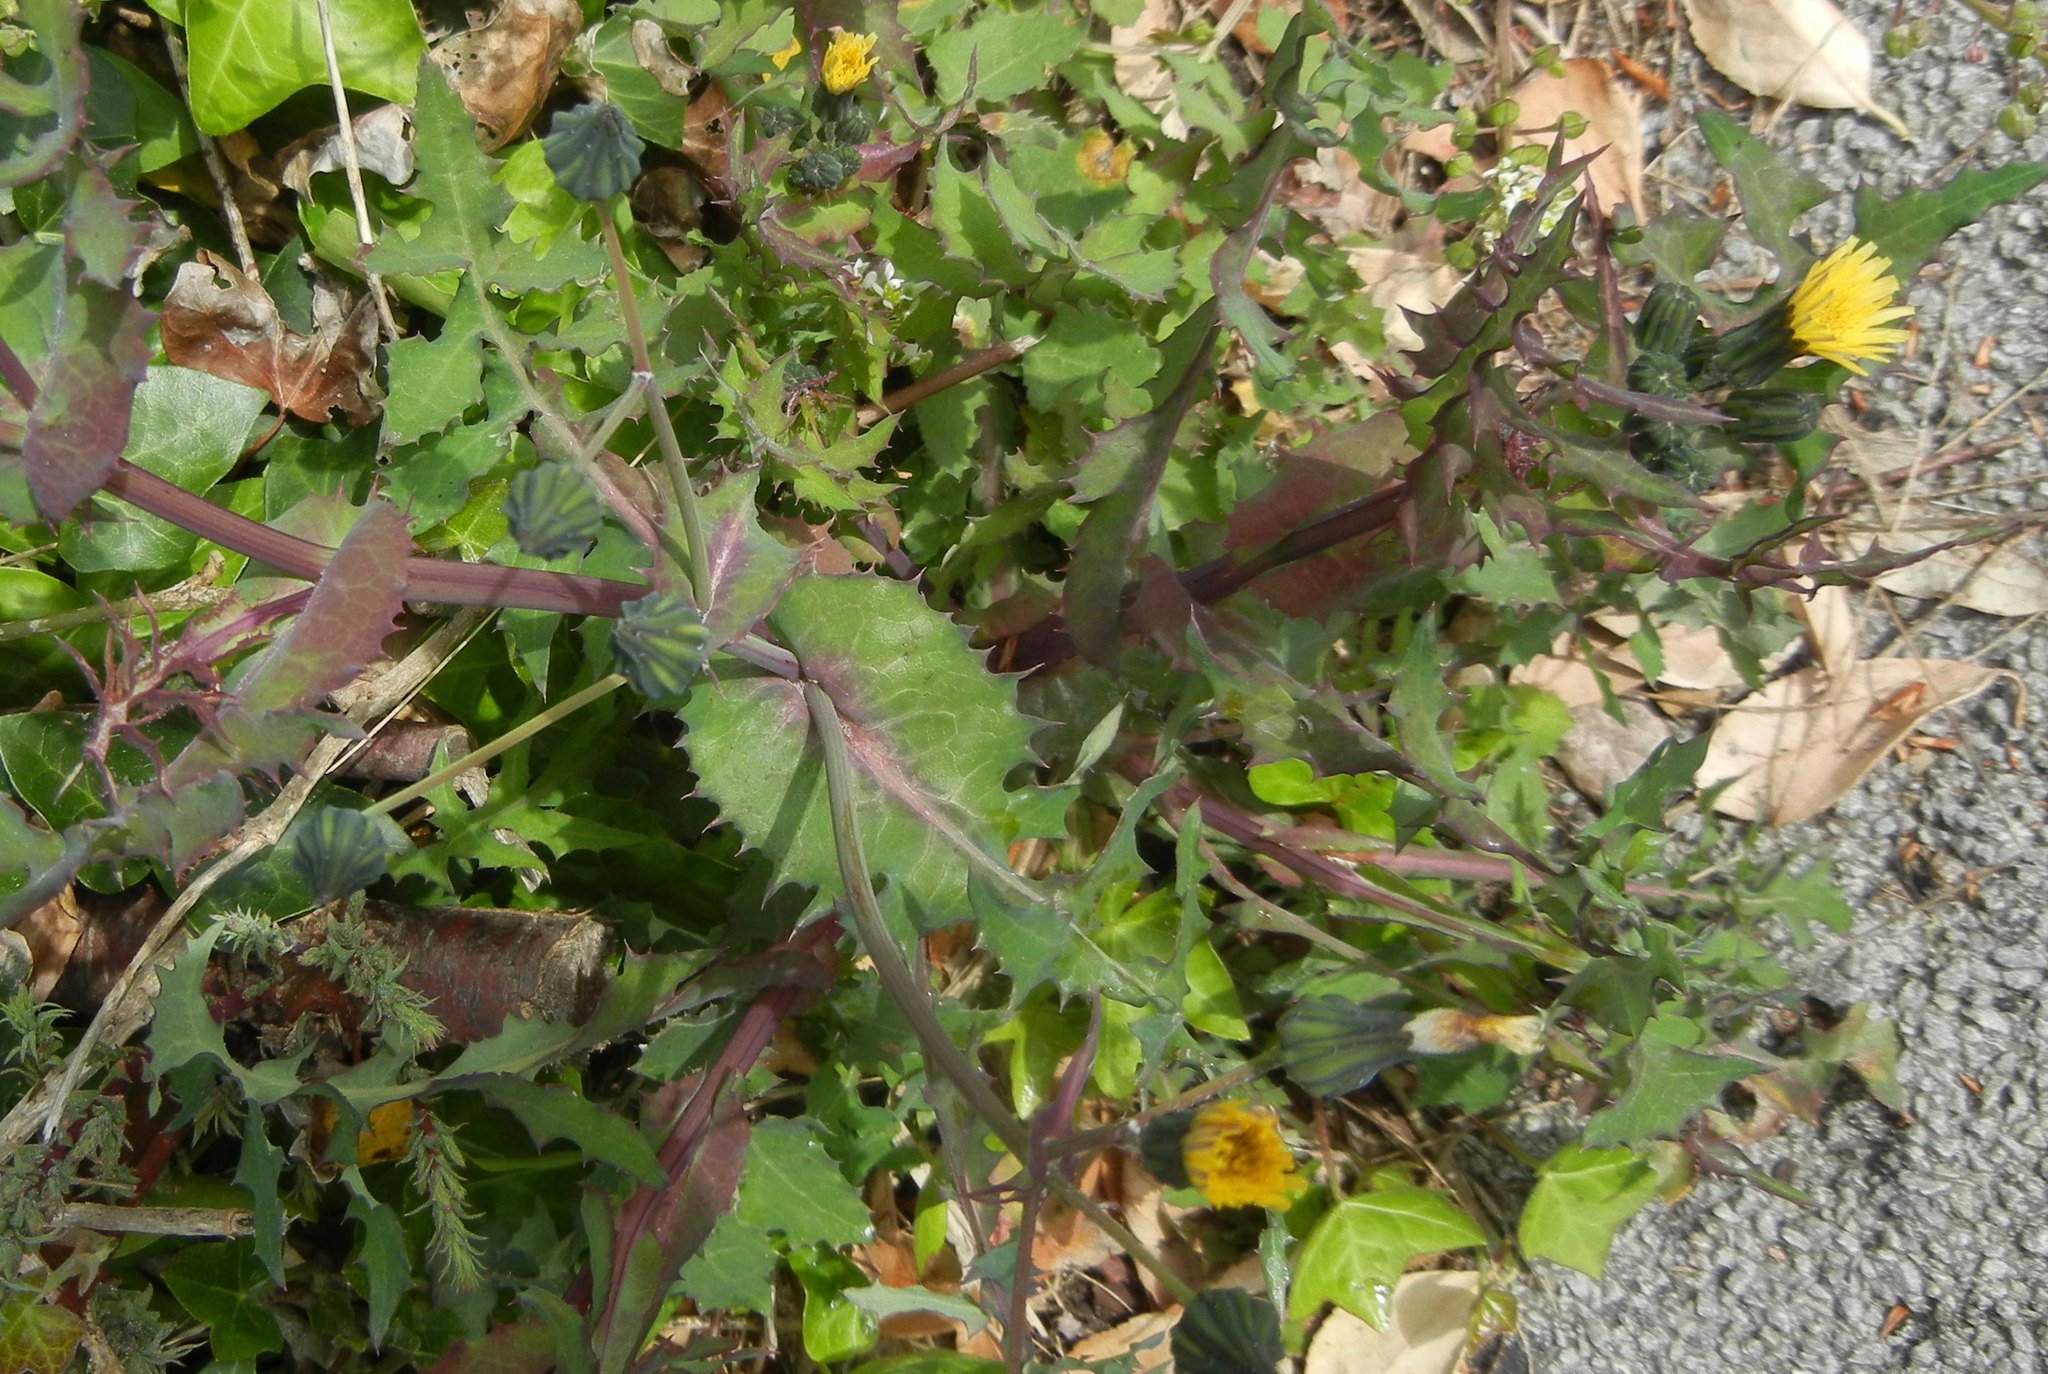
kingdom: Plantae
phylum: Tracheophyta
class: Magnoliopsida
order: Asterales
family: Asteraceae
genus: Sonchus
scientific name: Sonchus oleraceus
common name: Common sowthistle
